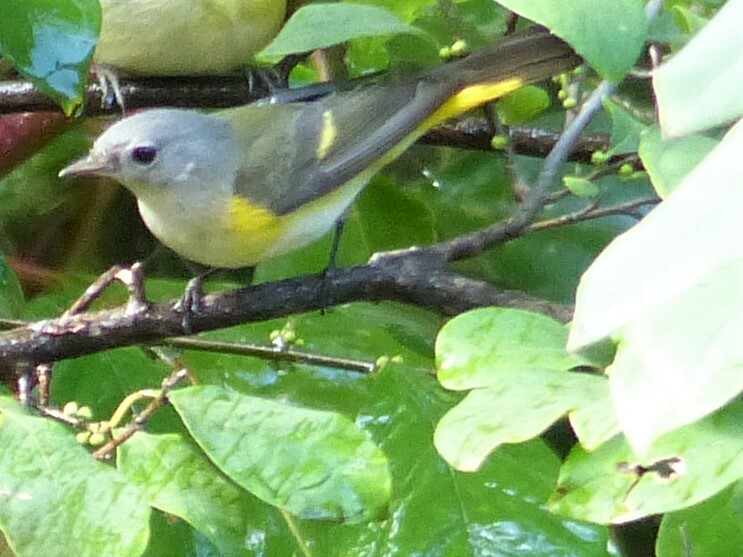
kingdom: Animalia
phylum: Chordata
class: Aves
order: Passeriformes
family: Parulidae
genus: Setophaga
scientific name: Setophaga ruticilla
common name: American redstart
